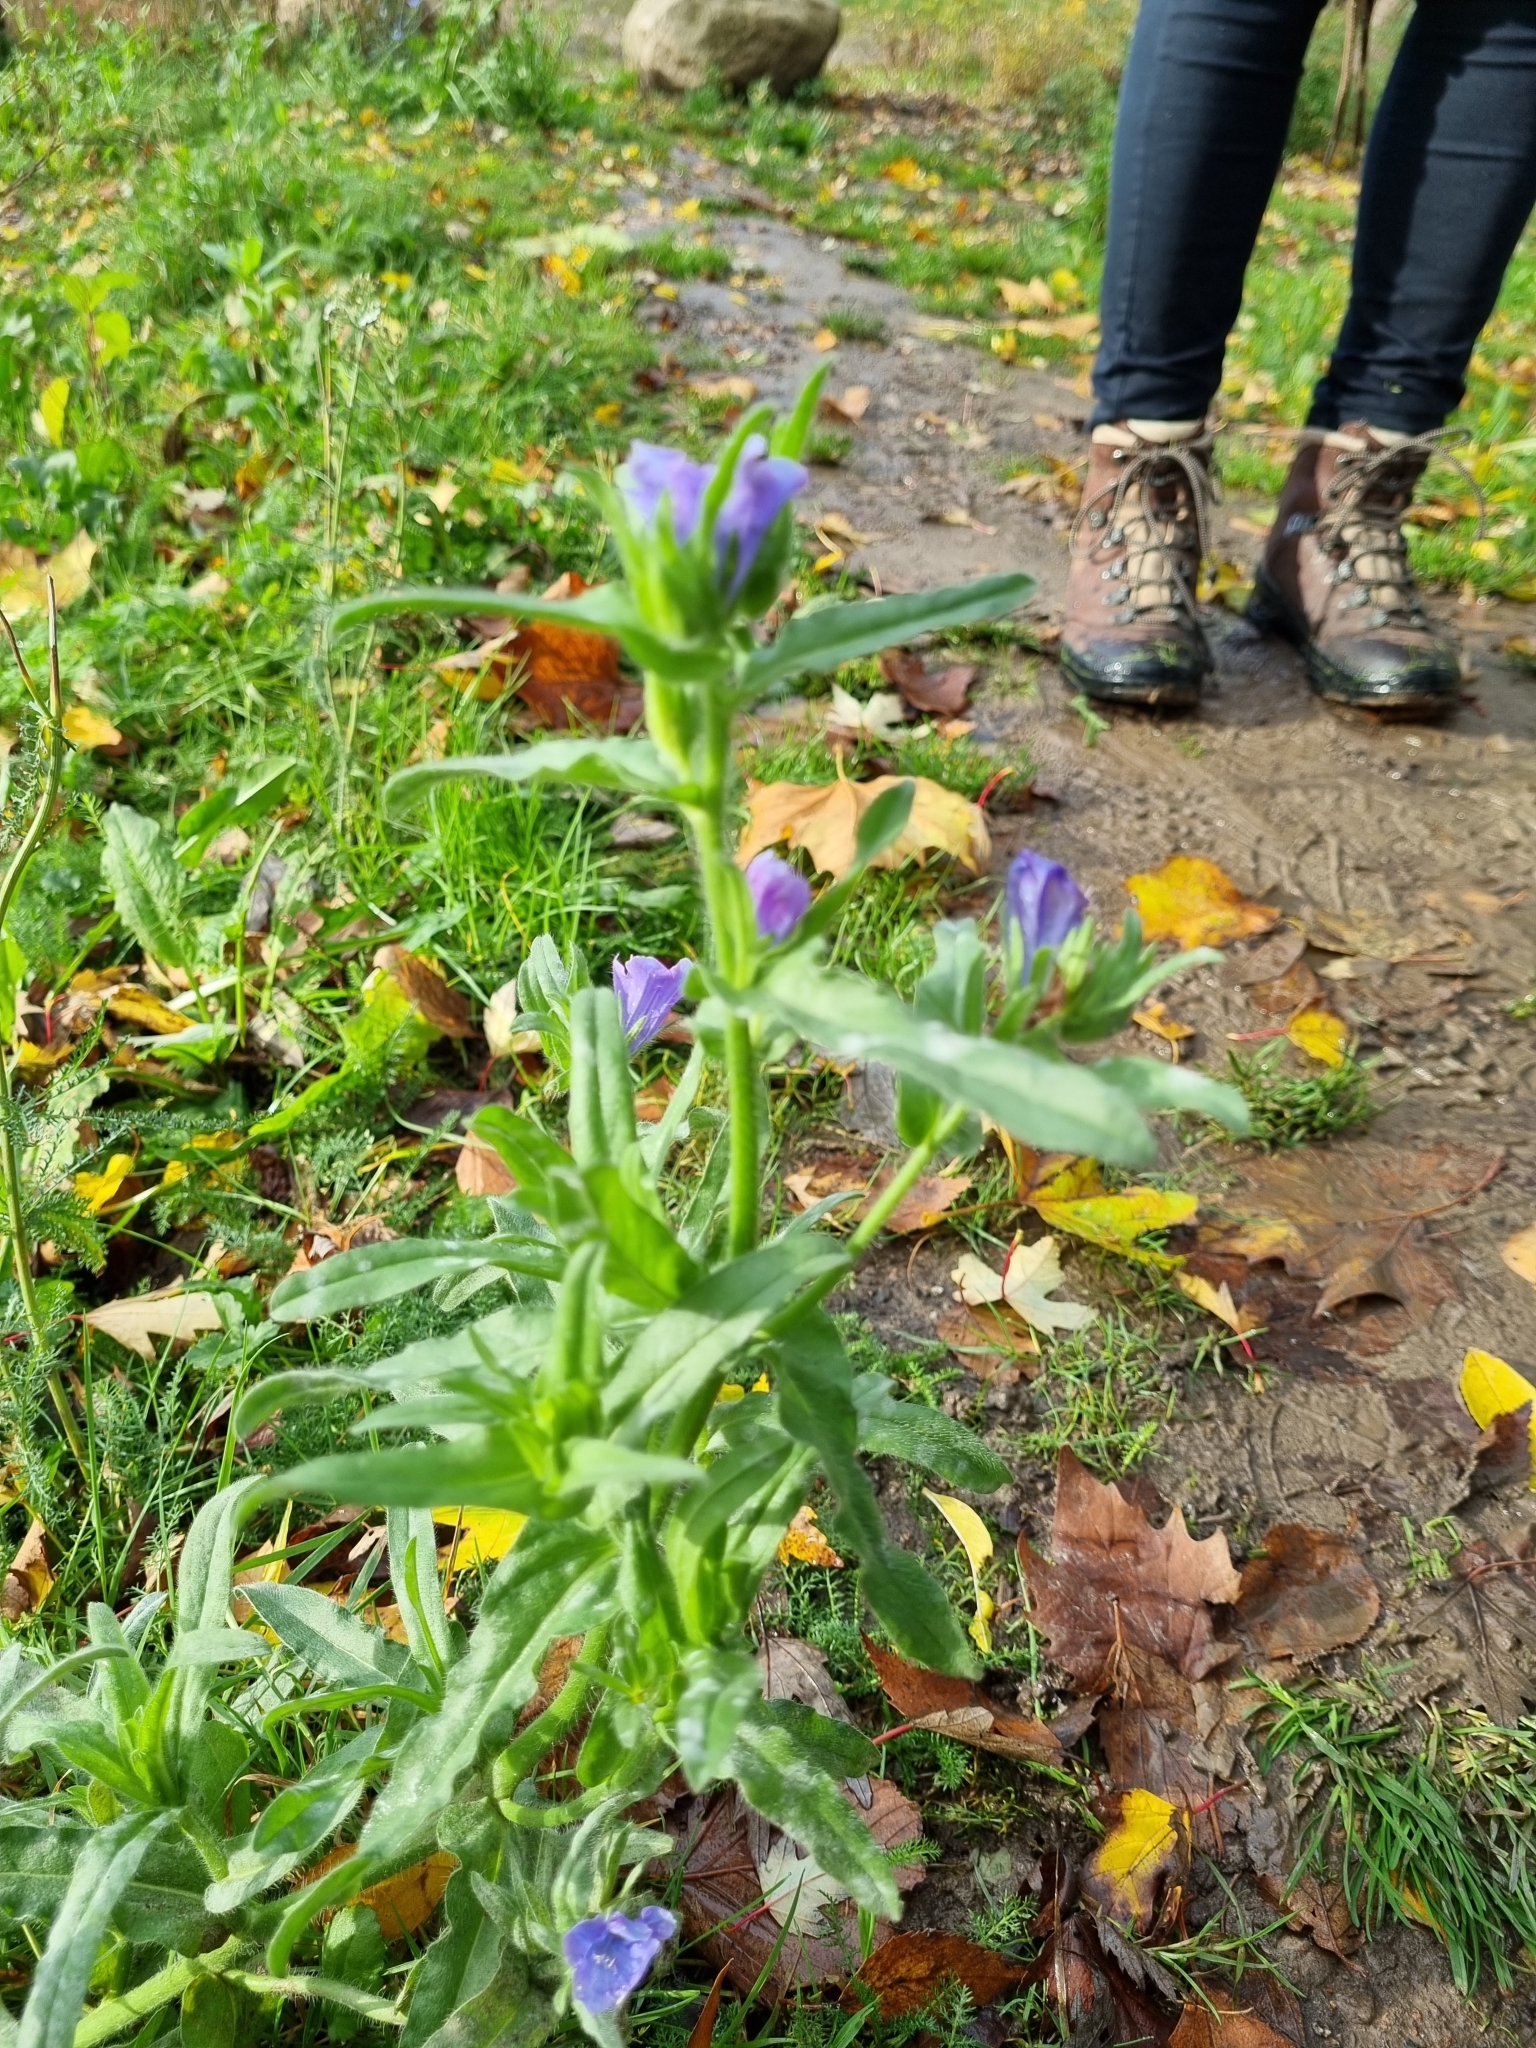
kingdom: Plantae
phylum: Tracheophyta
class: Magnoliopsida
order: Boraginales
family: Boraginaceae
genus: Echium
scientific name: Echium plantagineum
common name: Purple viper's-bugloss
